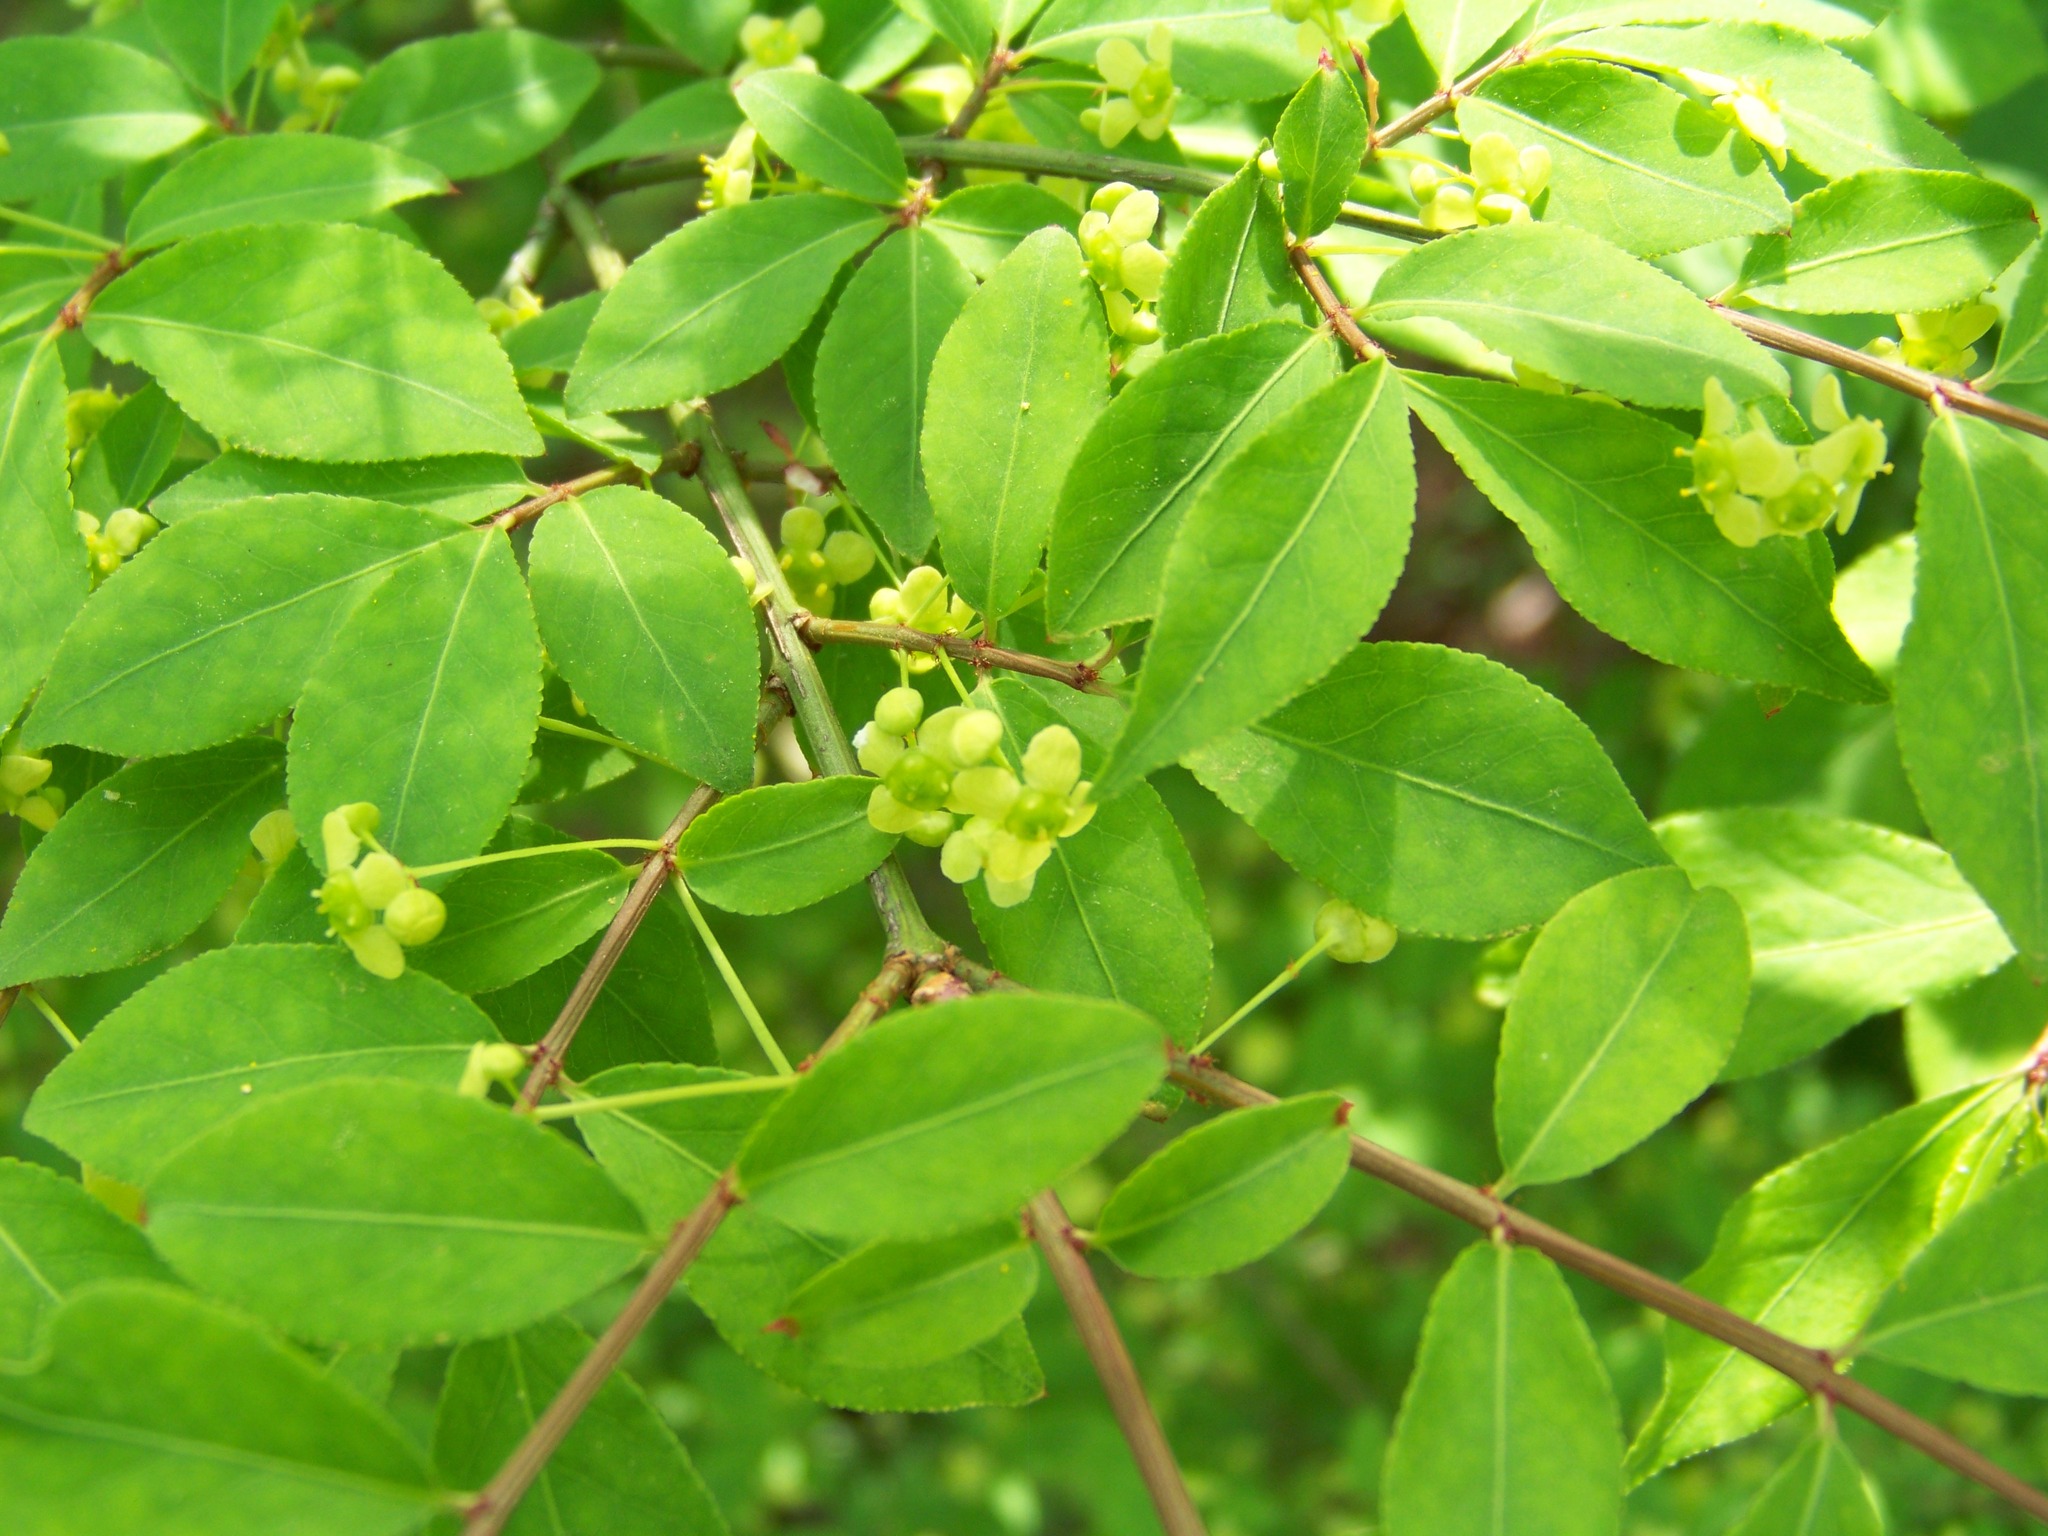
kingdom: Plantae
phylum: Tracheophyta
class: Magnoliopsida
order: Celastrales
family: Celastraceae
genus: Euonymus
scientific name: Euonymus alatus
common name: Winged euonymus
